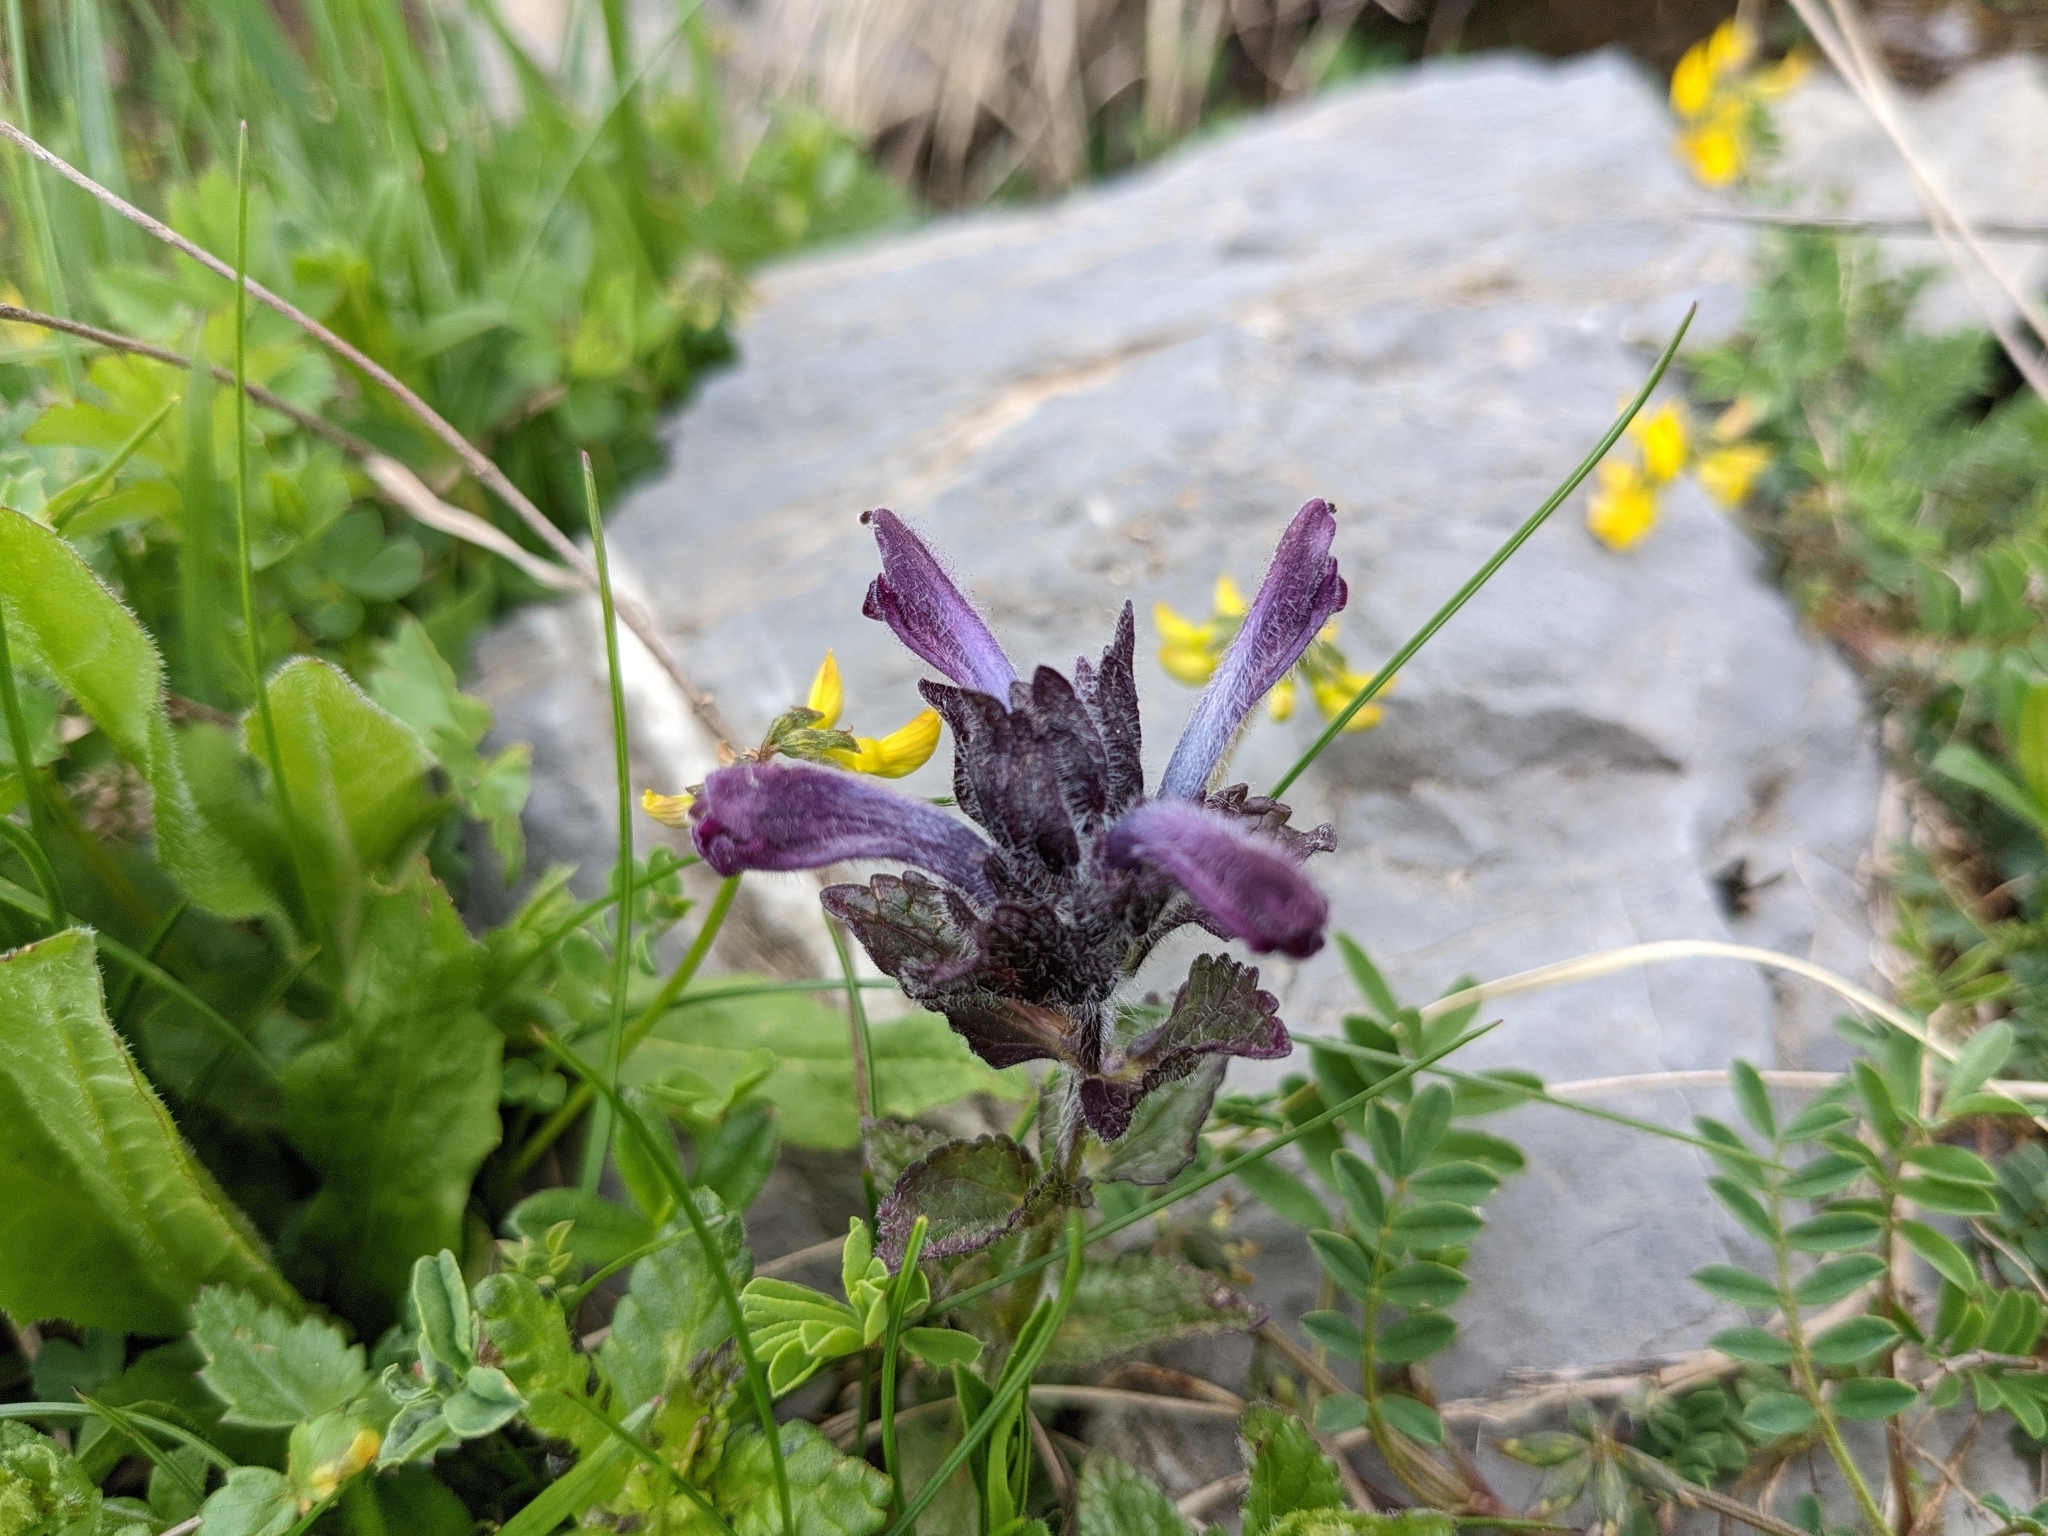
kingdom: Plantae
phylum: Tracheophyta
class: Magnoliopsida
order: Lamiales
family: Orobanchaceae
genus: Bartsia
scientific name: Bartsia alpina
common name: Alpine bartsia
